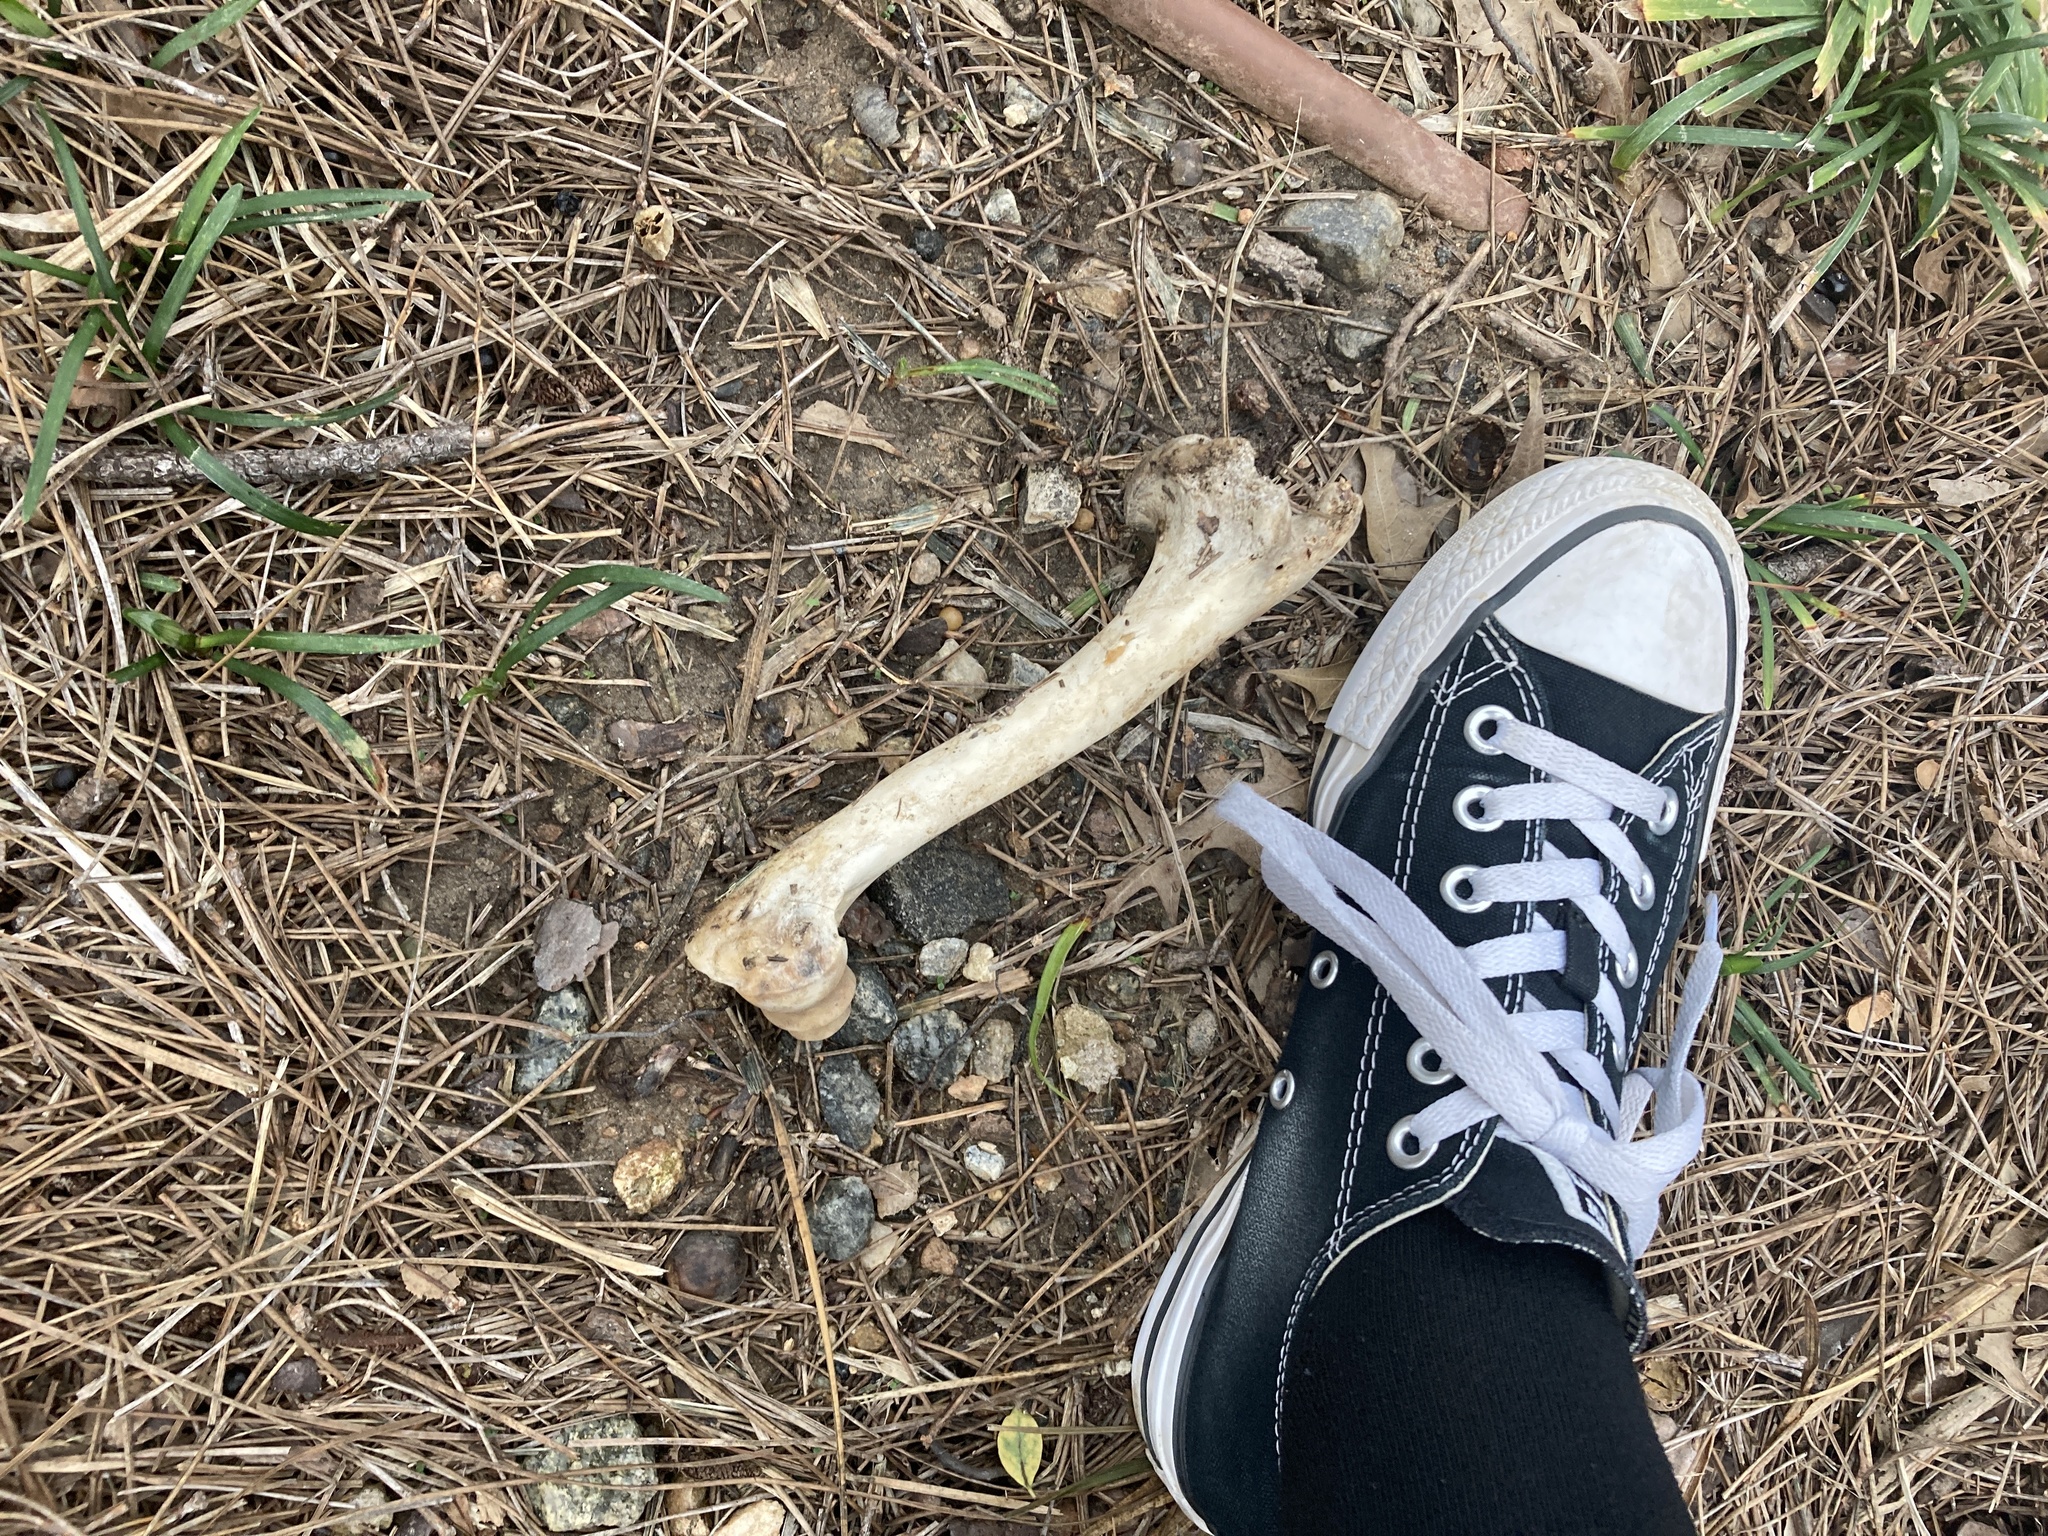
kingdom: Animalia
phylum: Chordata
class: Mammalia
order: Artiodactyla
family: Cervidae
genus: Odocoileus
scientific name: Odocoileus virginianus
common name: White-tailed deer
